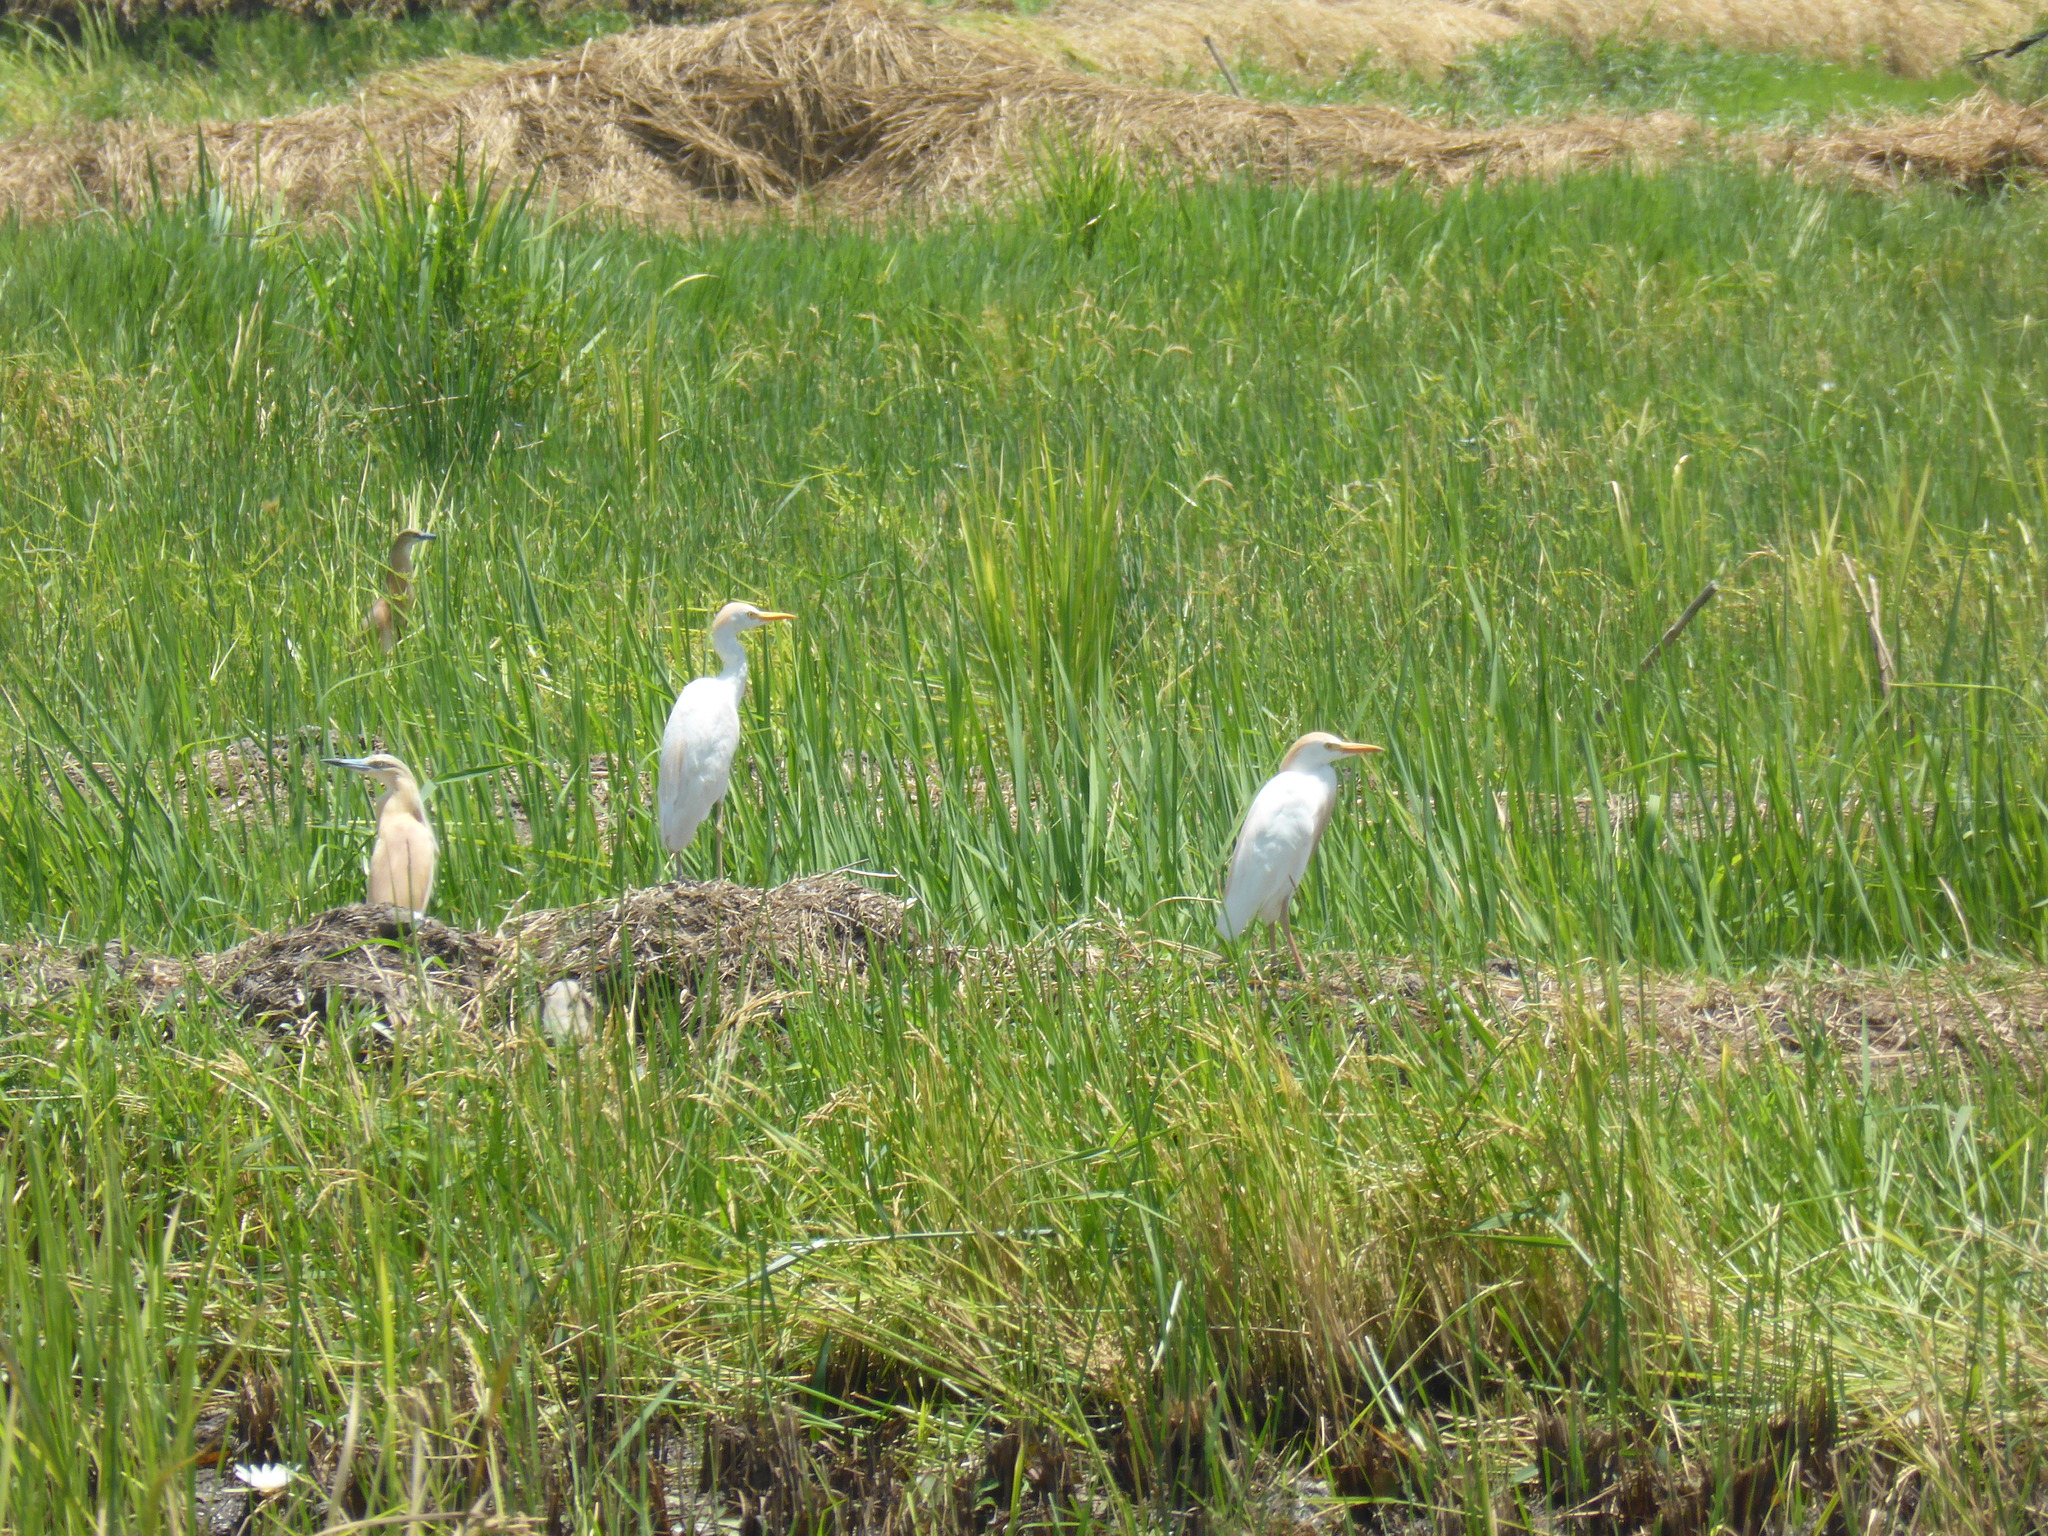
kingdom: Animalia
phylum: Chordata
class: Aves
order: Pelecaniformes
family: Ardeidae
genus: Ardeola
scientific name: Ardeola ralloides
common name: Squacco heron
